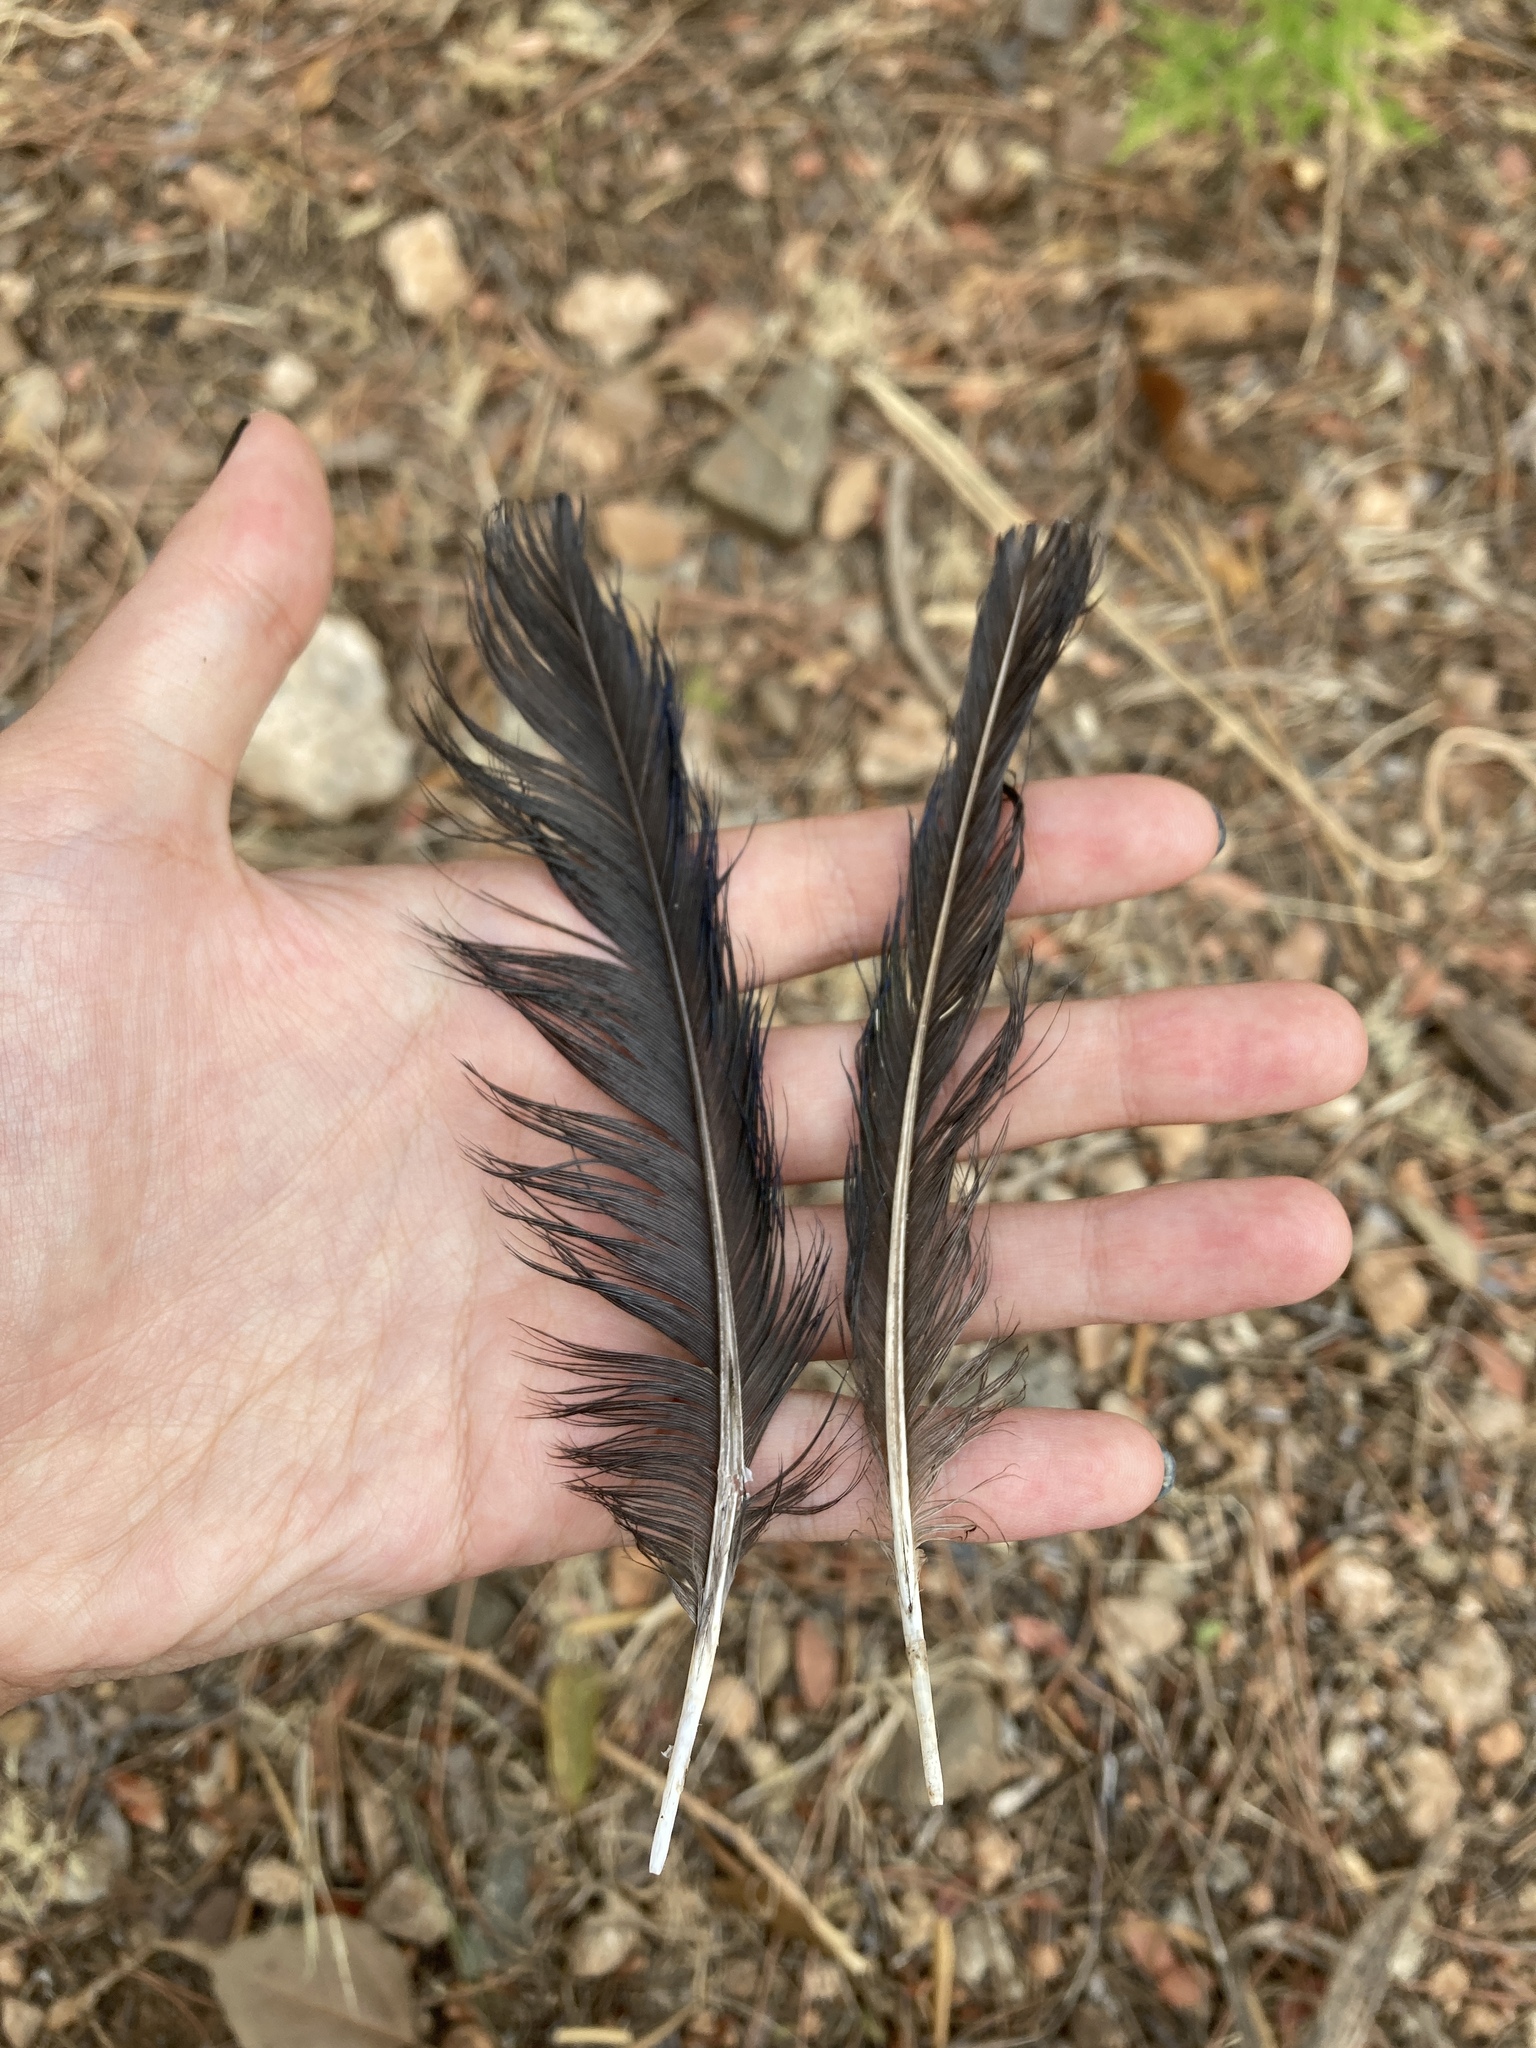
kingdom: Animalia
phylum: Chordata
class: Aves
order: Passeriformes
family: Corvidae
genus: Pica
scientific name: Pica pica
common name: Eurasian magpie
